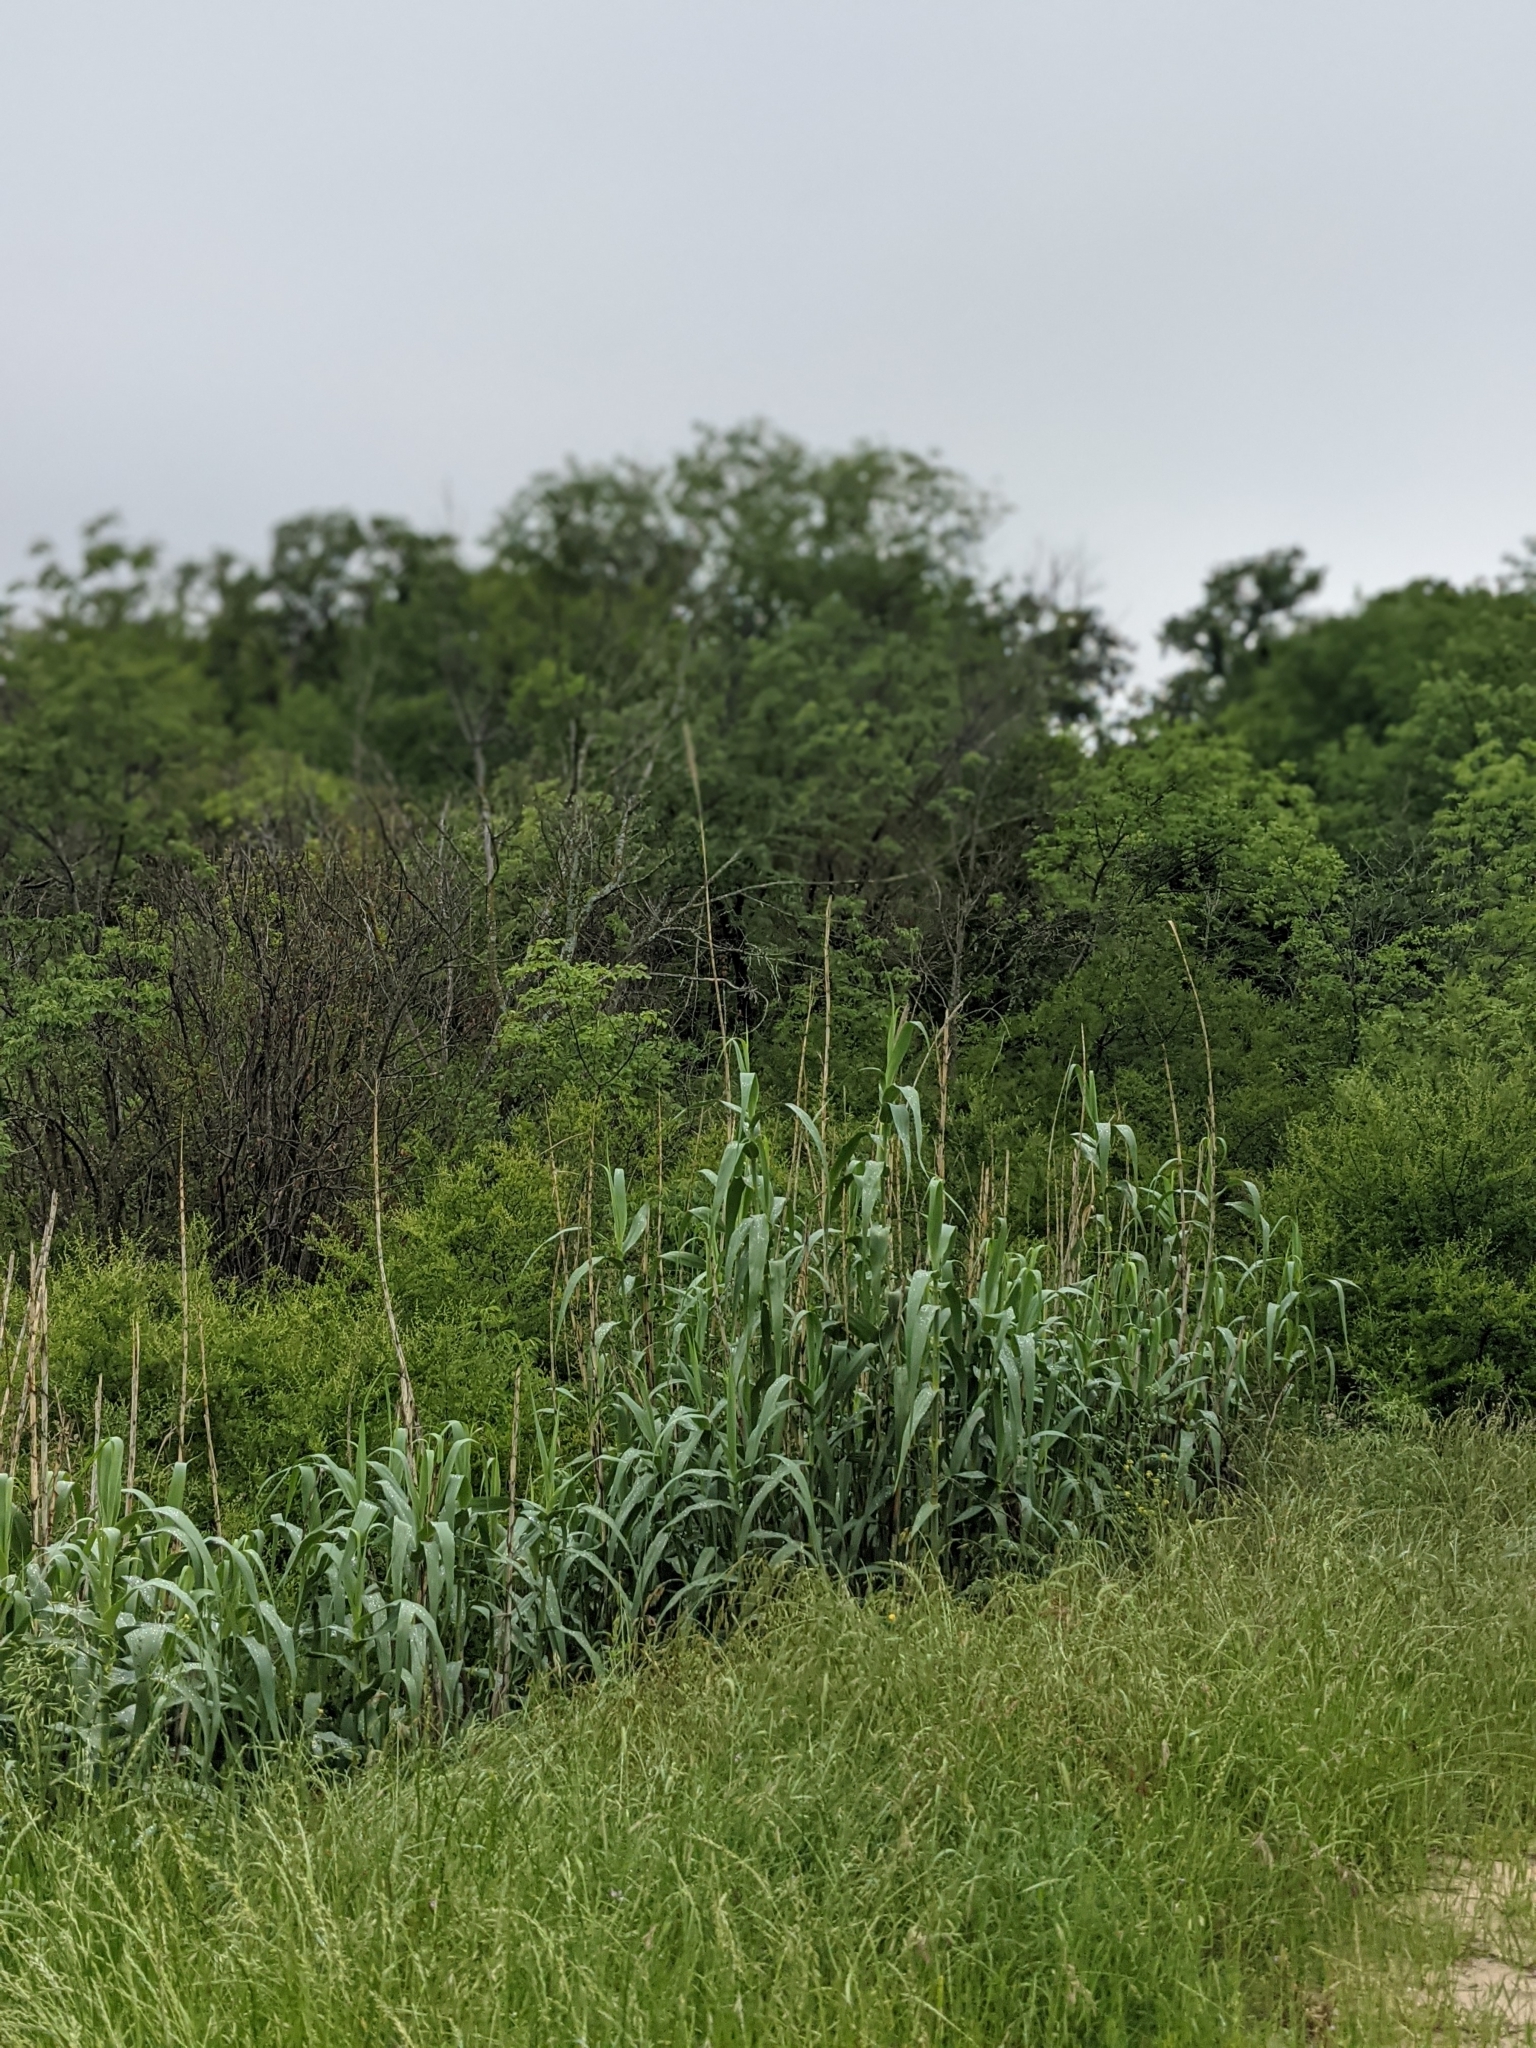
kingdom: Plantae
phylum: Tracheophyta
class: Liliopsida
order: Poales
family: Poaceae
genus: Arundo
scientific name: Arundo donax
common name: Giant reed
